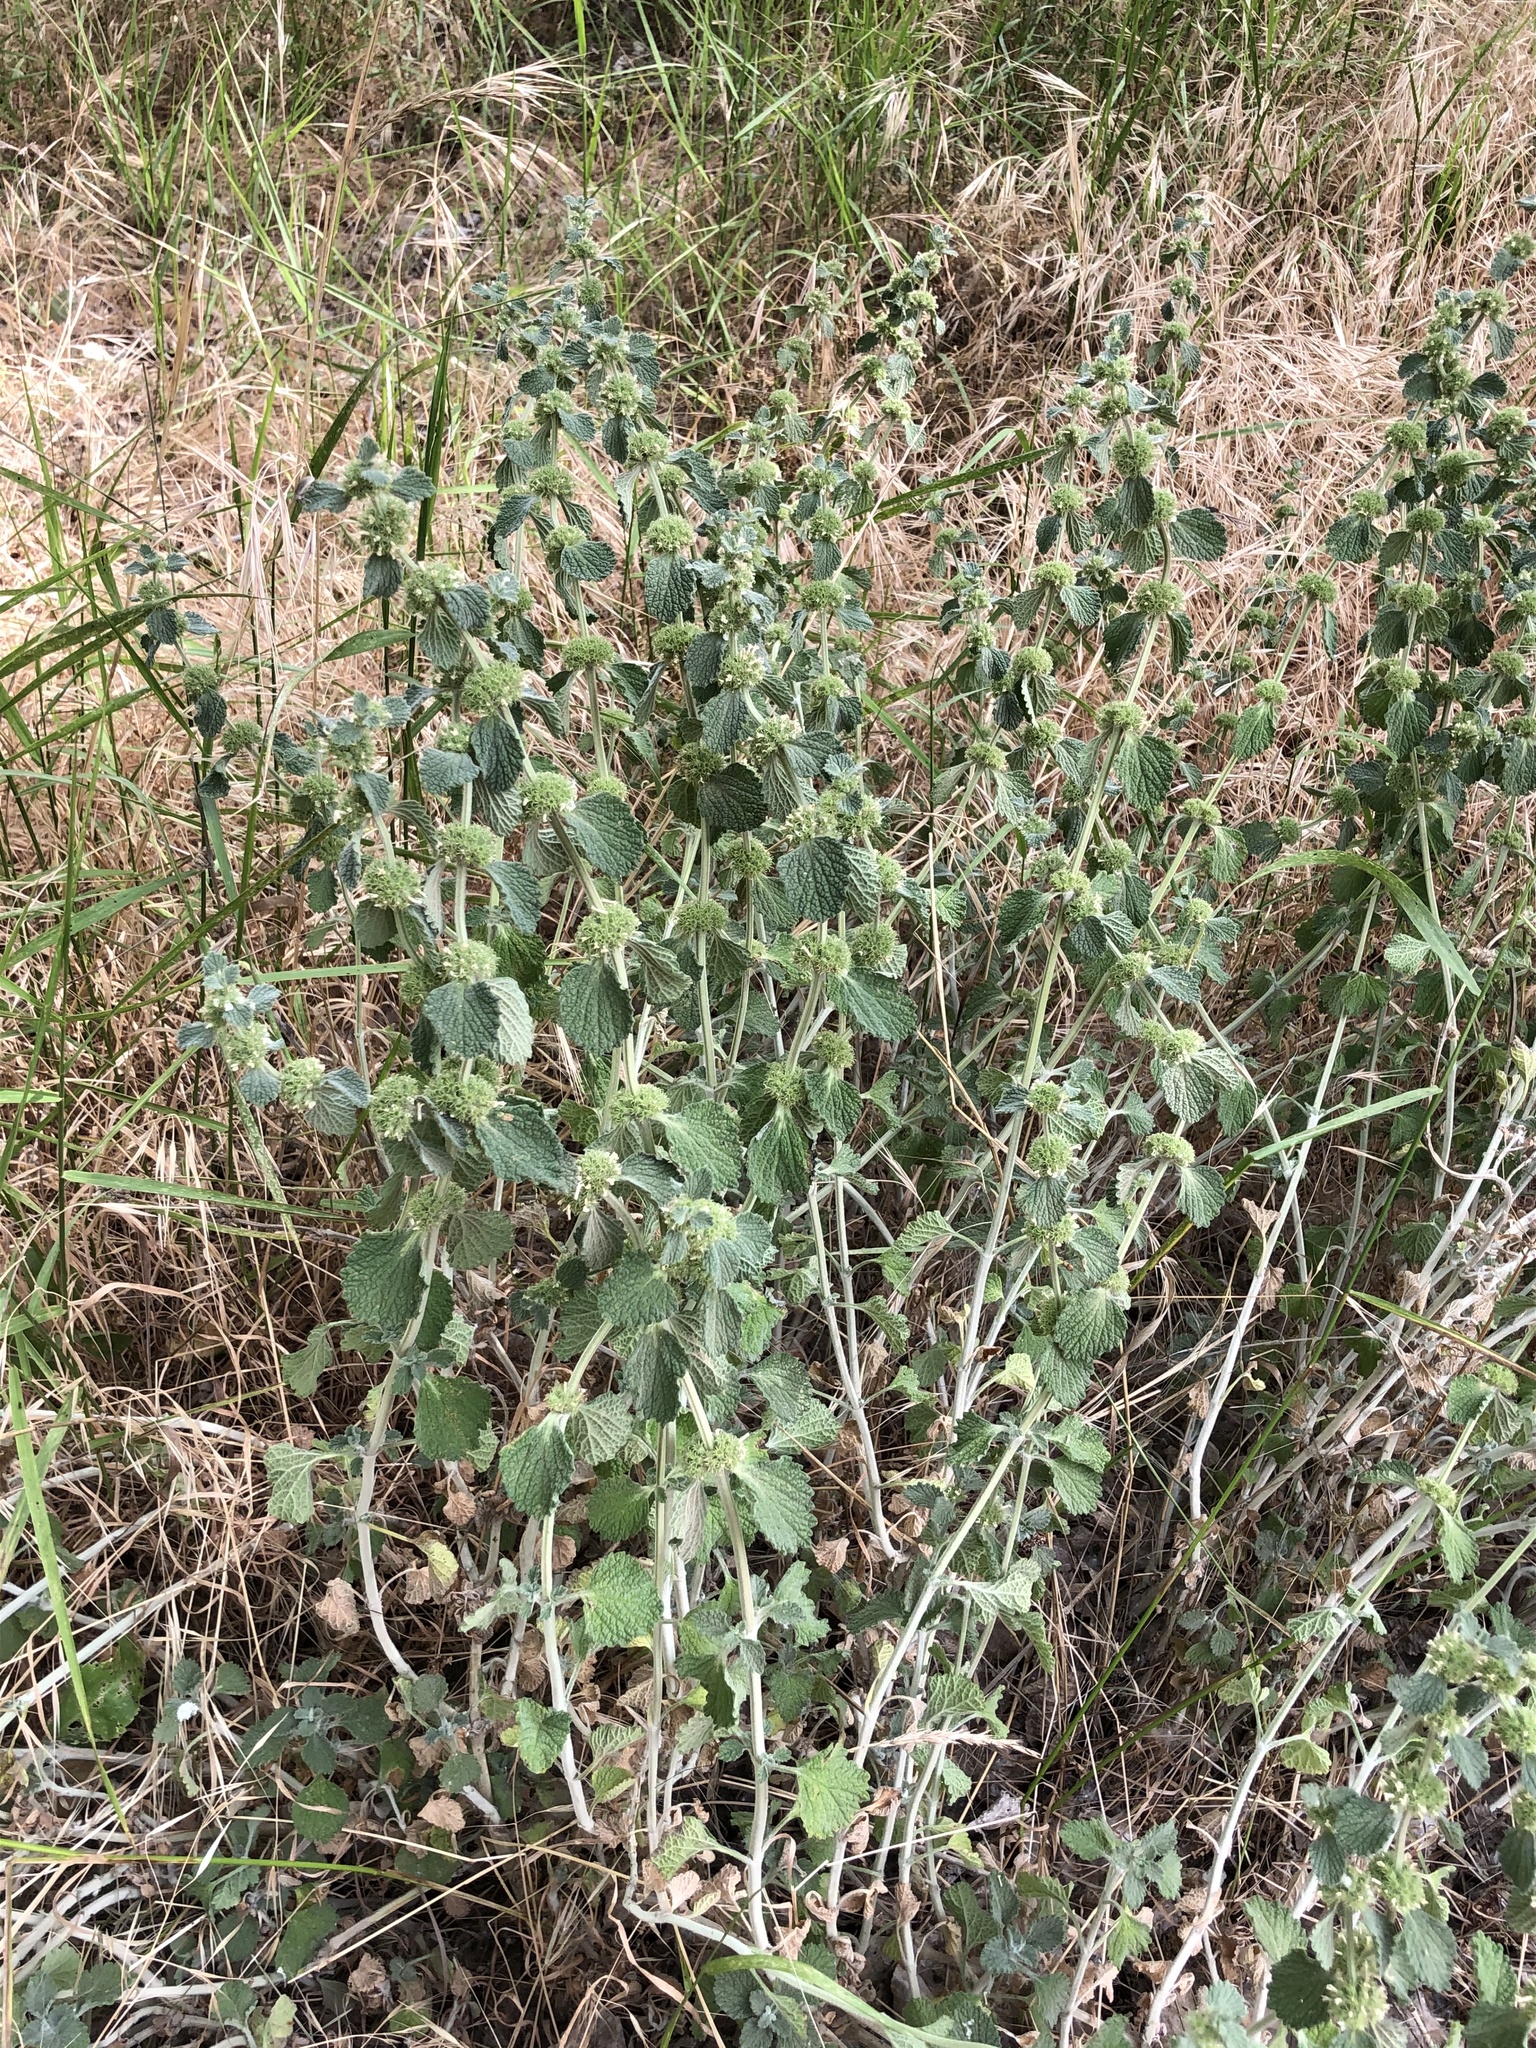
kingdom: Plantae
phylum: Tracheophyta
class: Magnoliopsida
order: Lamiales
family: Lamiaceae
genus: Marrubium
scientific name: Marrubium vulgare
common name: Horehound
